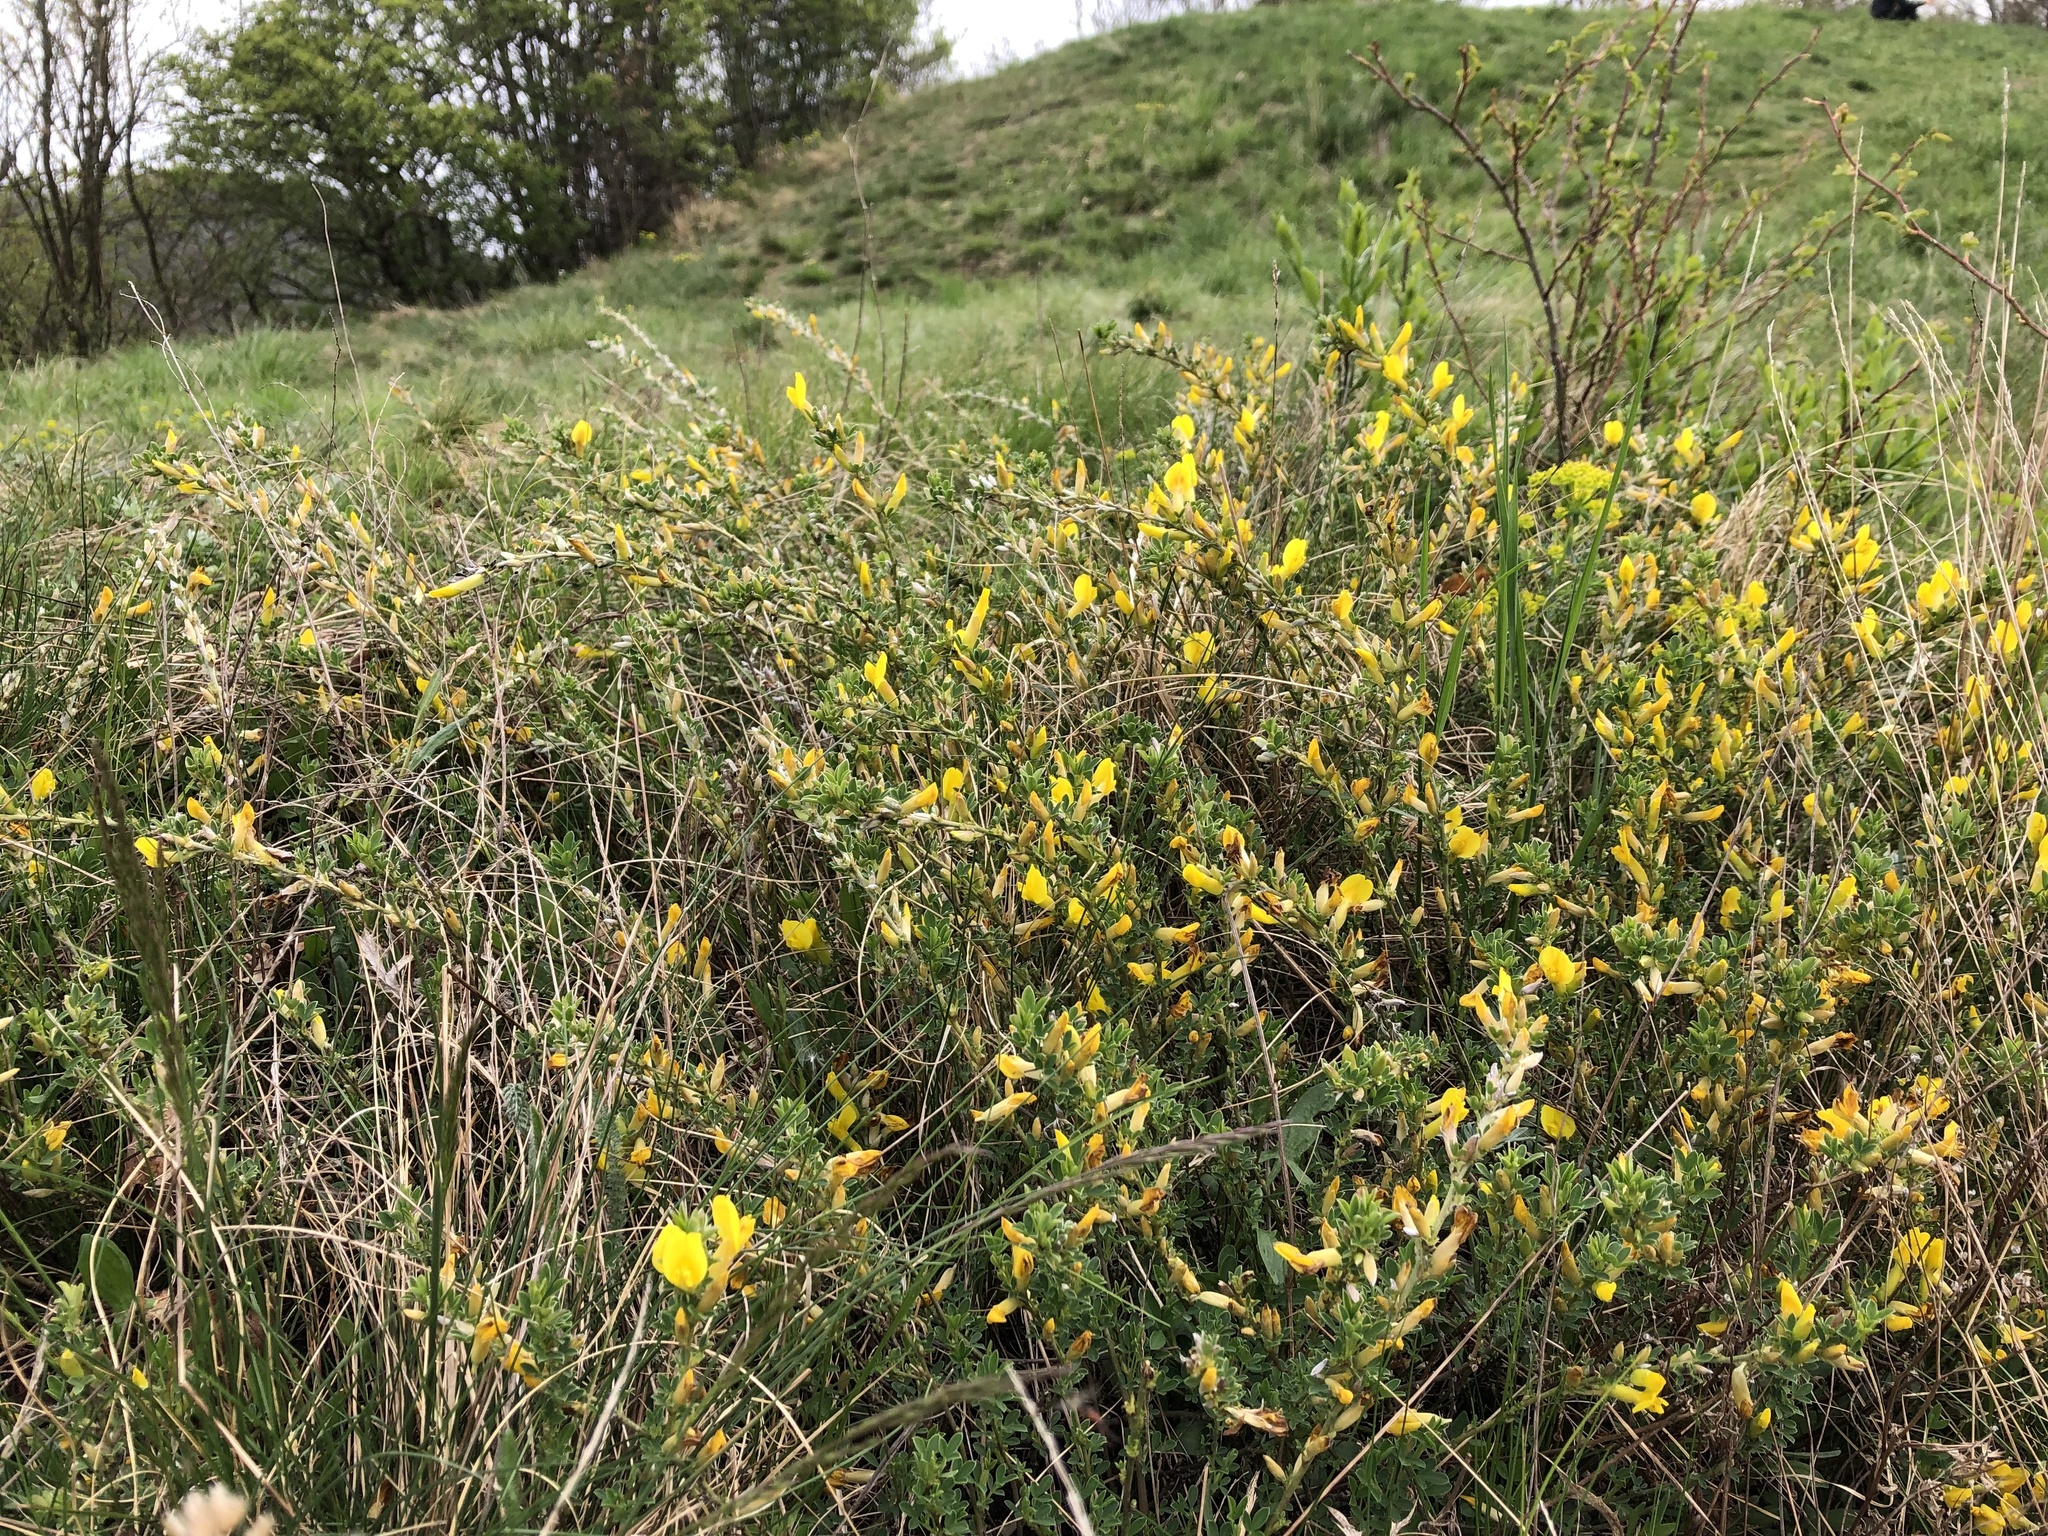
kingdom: Plantae
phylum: Tracheophyta
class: Magnoliopsida
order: Fabales
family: Fabaceae
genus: Chamaecytisus
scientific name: Chamaecytisus ratisbonensis
